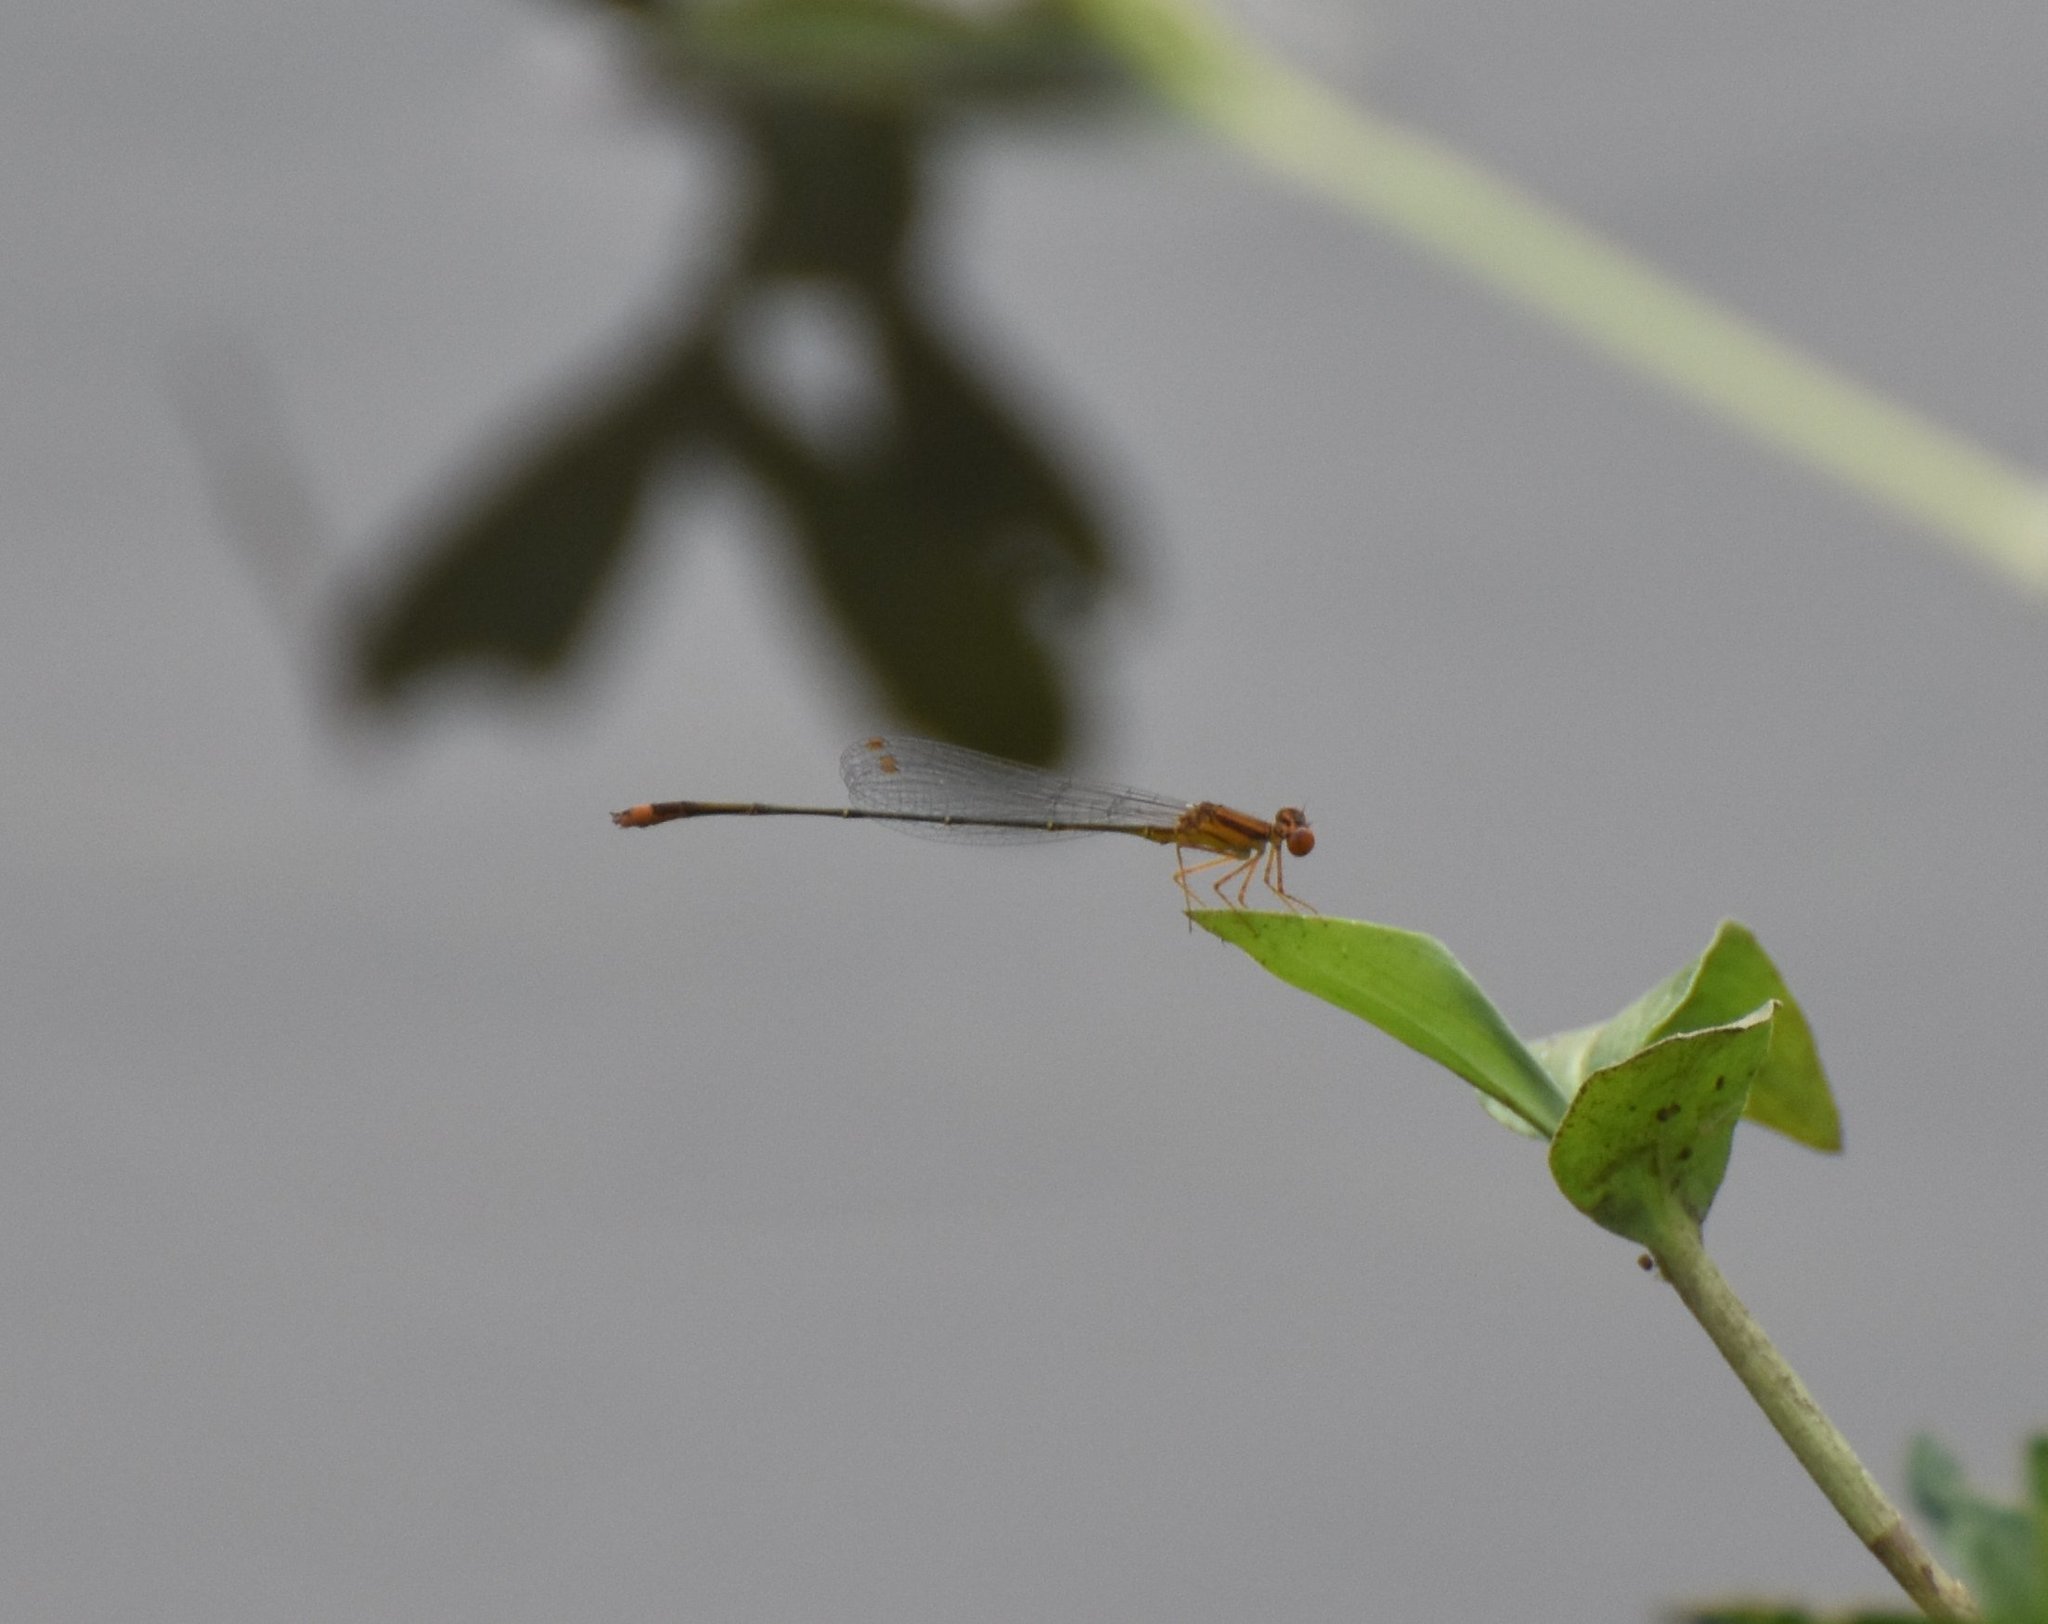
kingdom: Animalia
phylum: Arthropoda
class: Insecta
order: Odonata
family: Coenagrionidae
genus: Enallagma
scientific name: Enallagma pollutum
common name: Florida bluet
